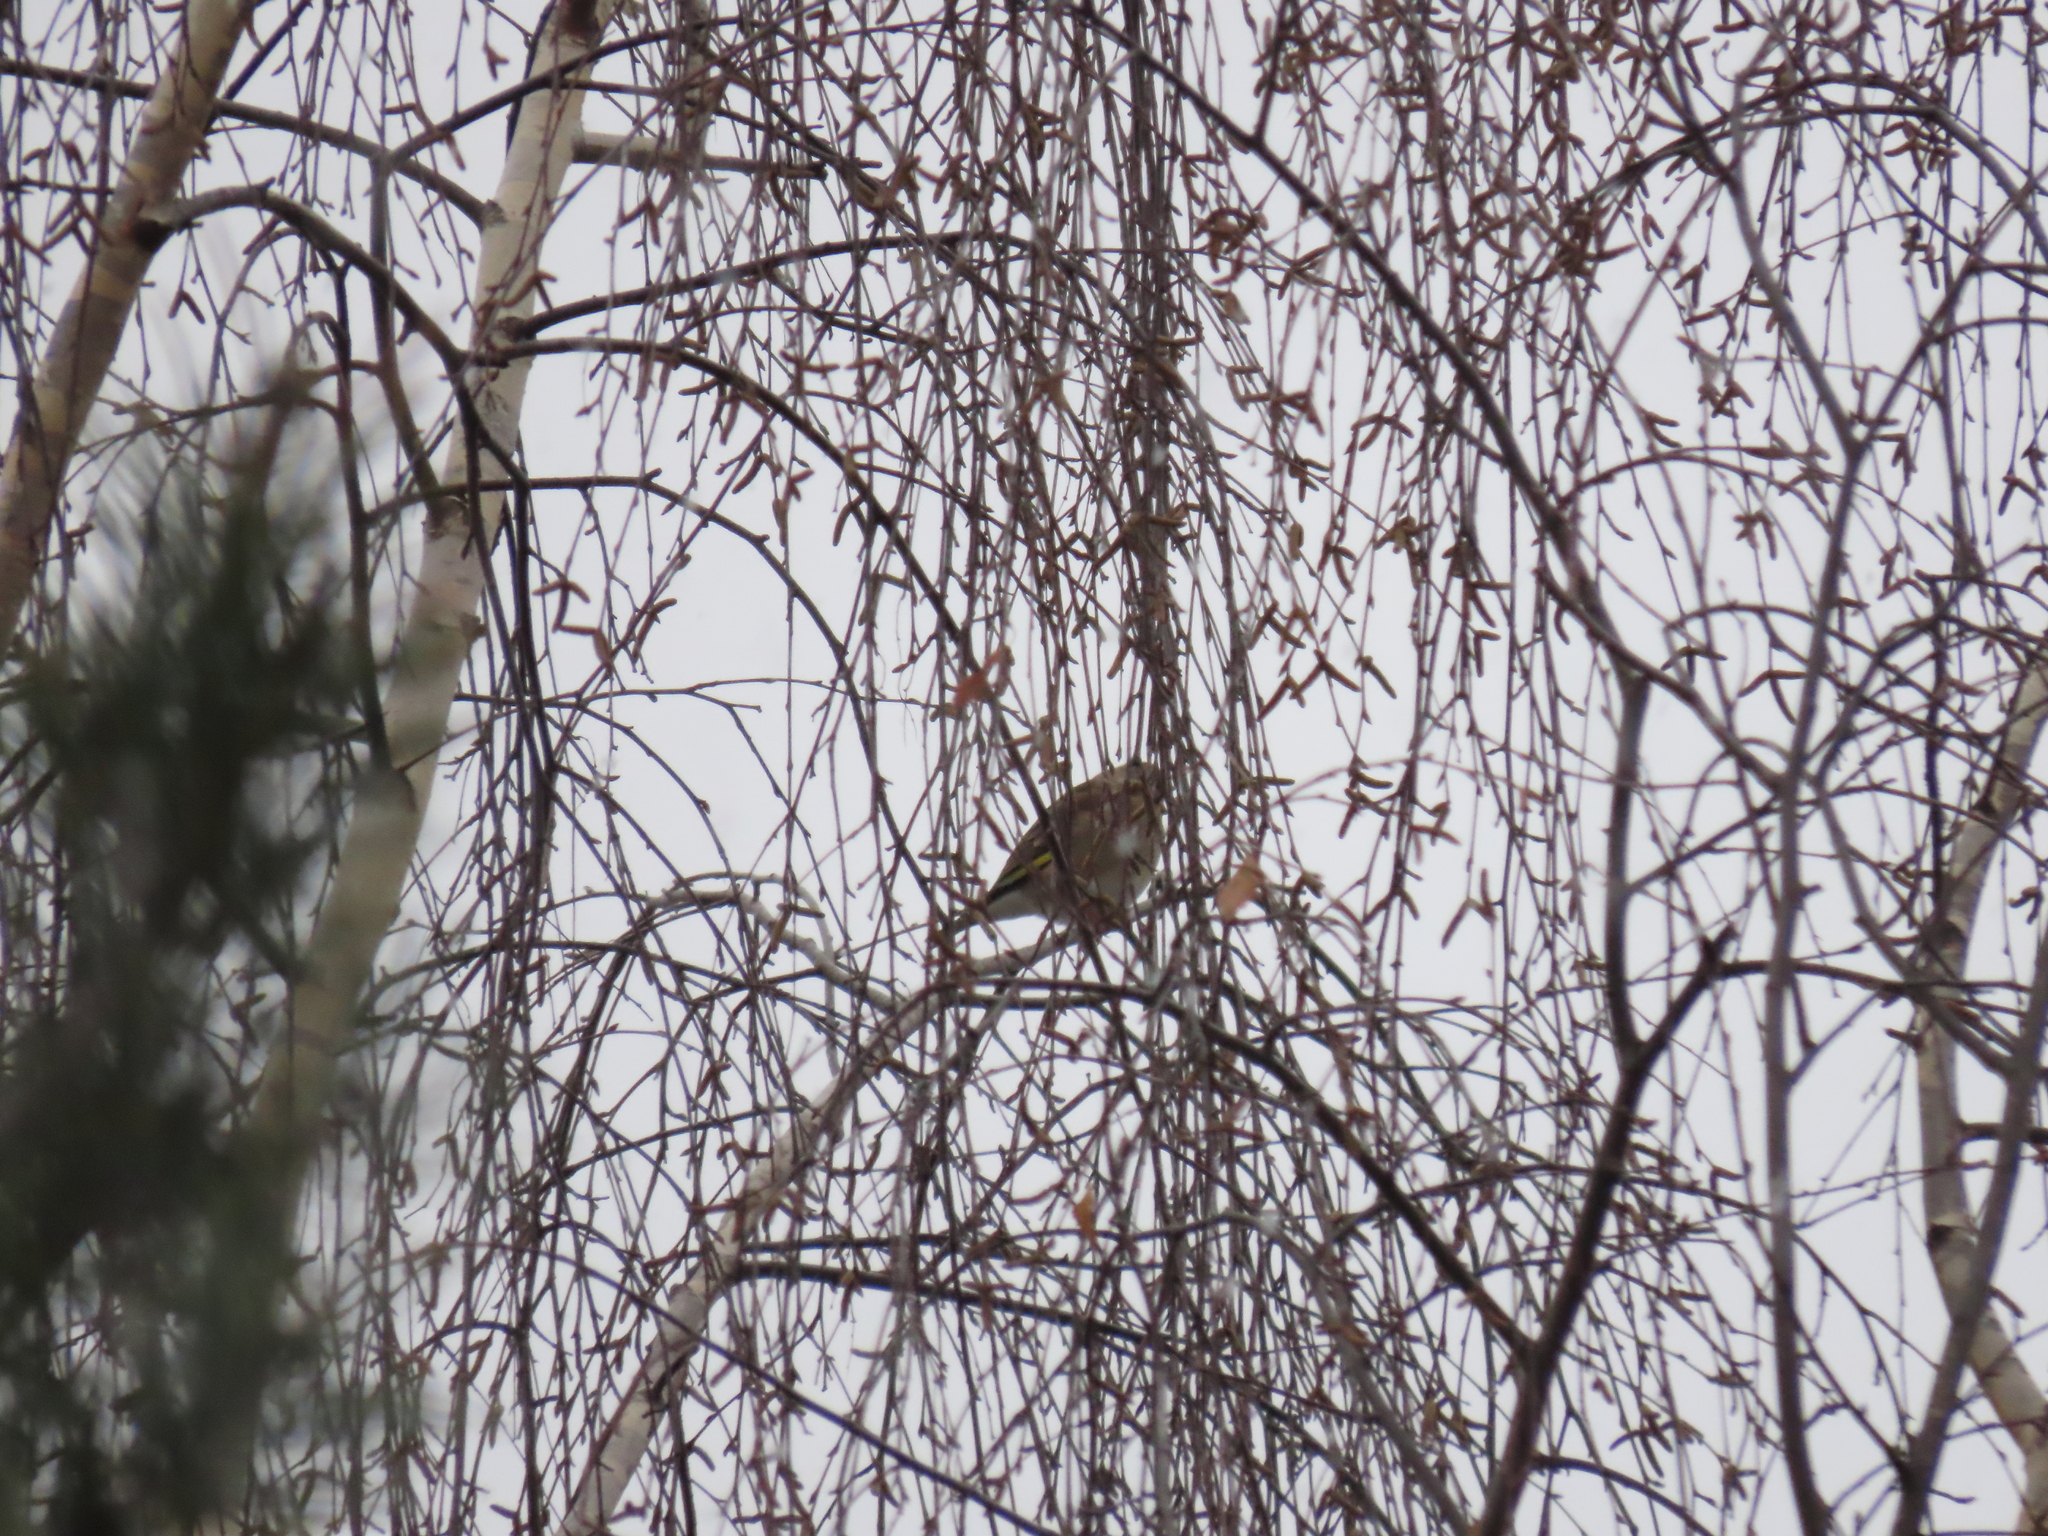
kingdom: Plantae
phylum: Tracheophyta
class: Liliopsida
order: Poales
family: Poaceae
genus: Chloris
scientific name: Chloris chloris
